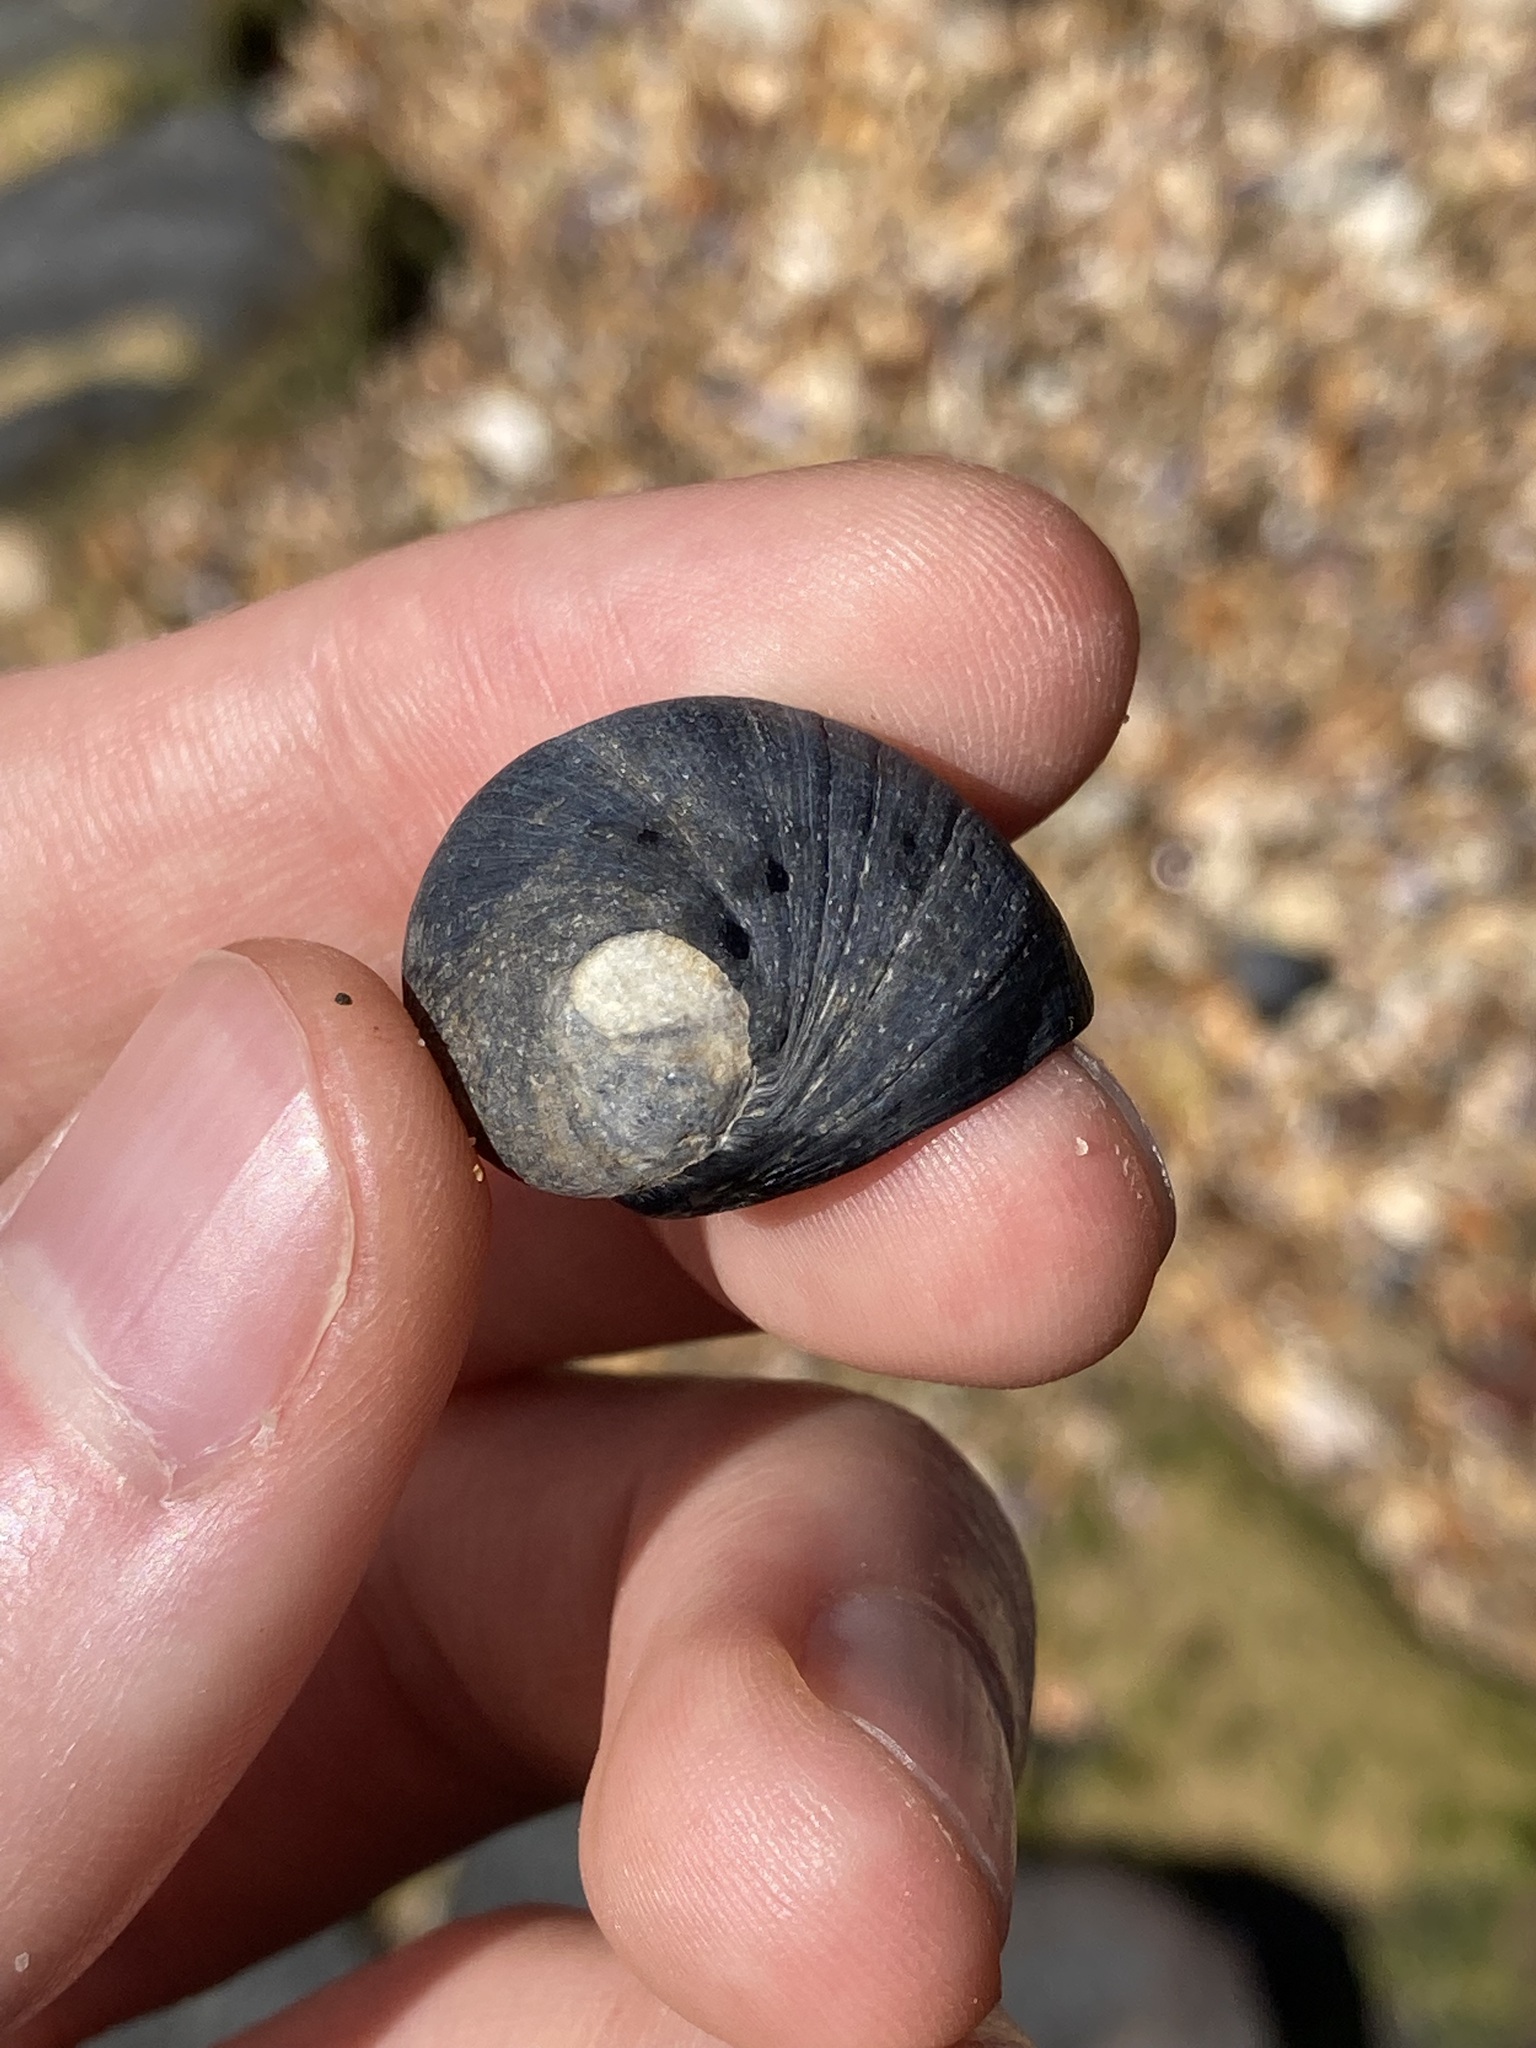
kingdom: Animalia
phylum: Mollusca
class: Gastropoda
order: Cycloneritida
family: Neritidae
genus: Nerita
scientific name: Nerita melanotragus
